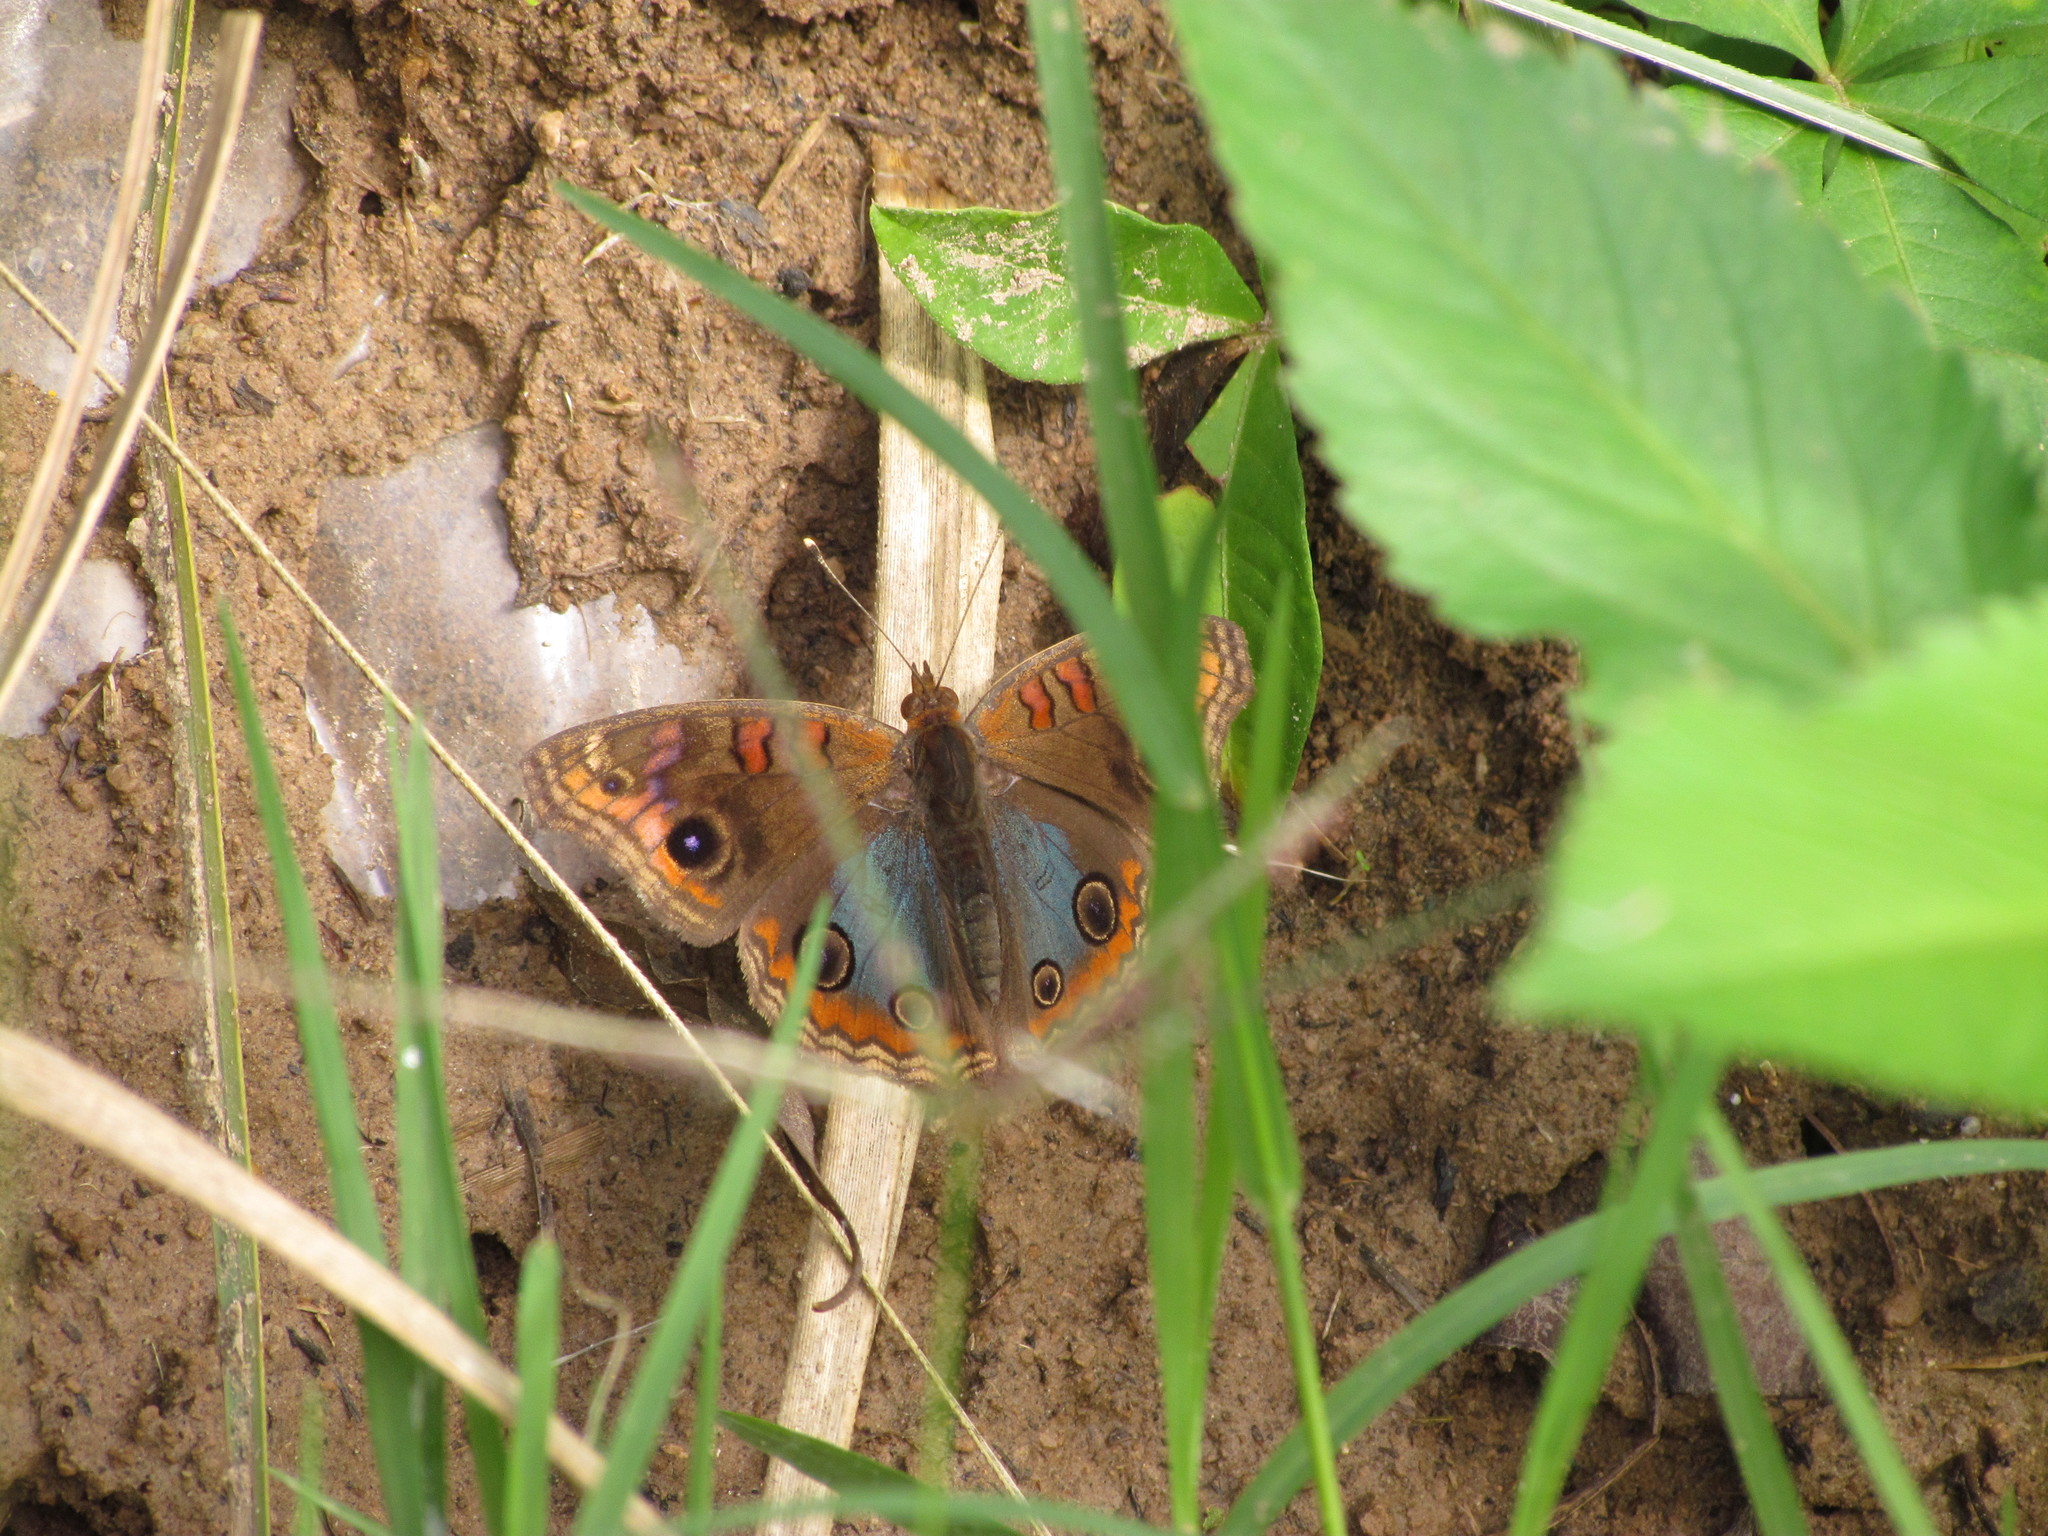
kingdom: Animalia
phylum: Arthropoda
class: Insecta
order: Lepidoptera
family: Nymphalidae
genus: Junonia
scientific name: Junonia lavinia
